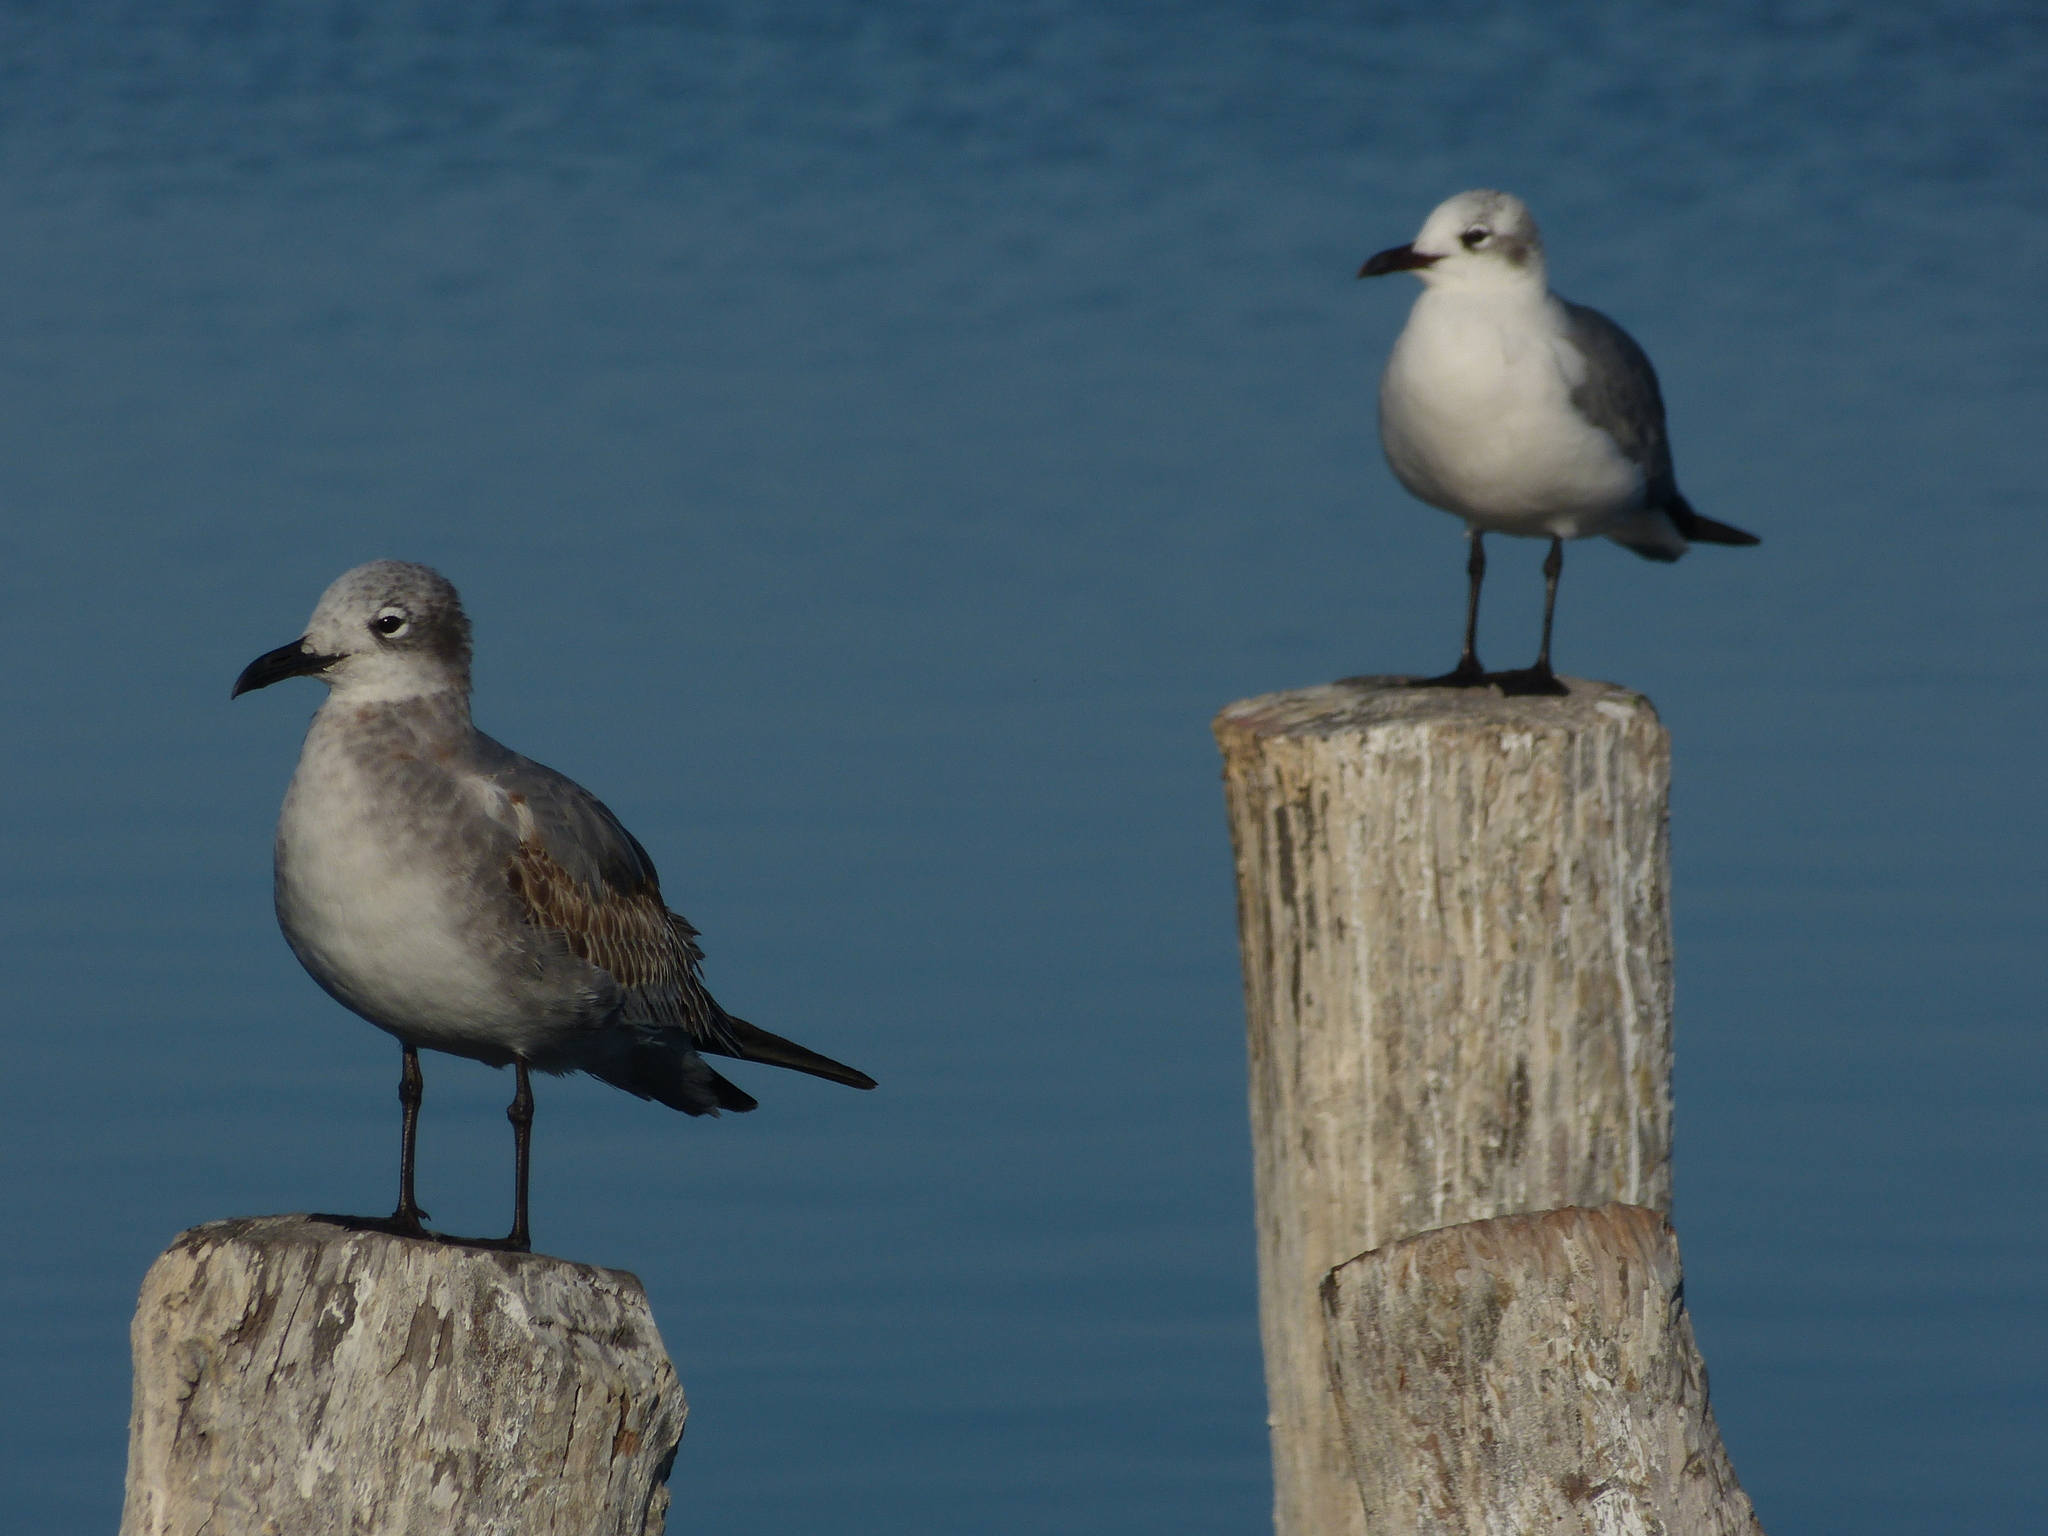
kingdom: Animalia
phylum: Chordata
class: Aves
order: Charadriiformes
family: Laridae
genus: Leucophaeus
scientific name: Leucophaeus atricilla
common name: Laughing gull
